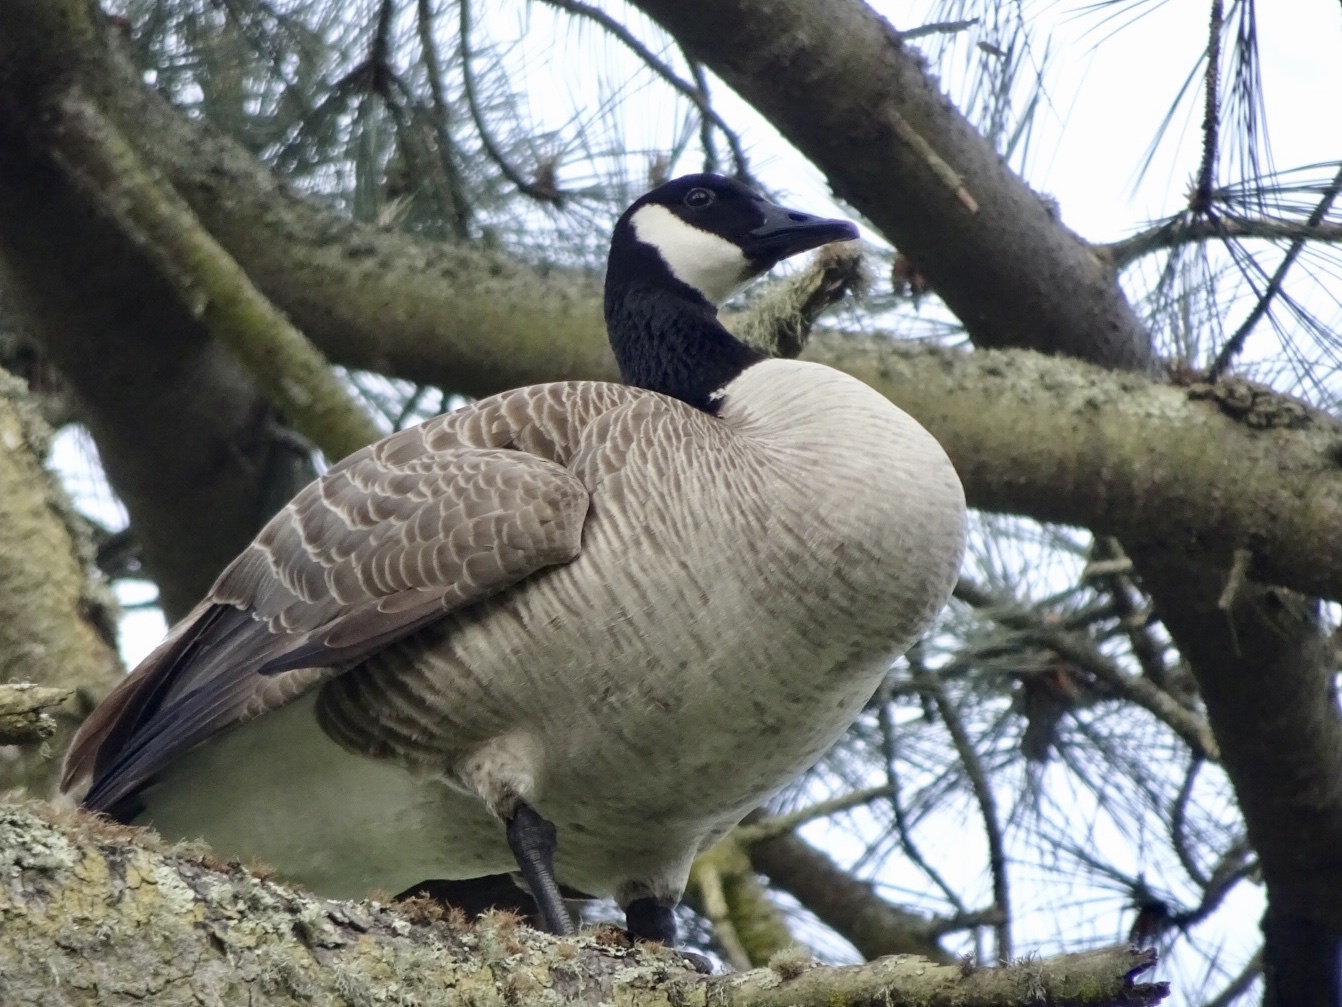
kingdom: Animalia
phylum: Chordata
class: Aves
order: Anseriformes
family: Anatidae
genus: Branta
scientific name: Branta canadensis
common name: Canada goose
